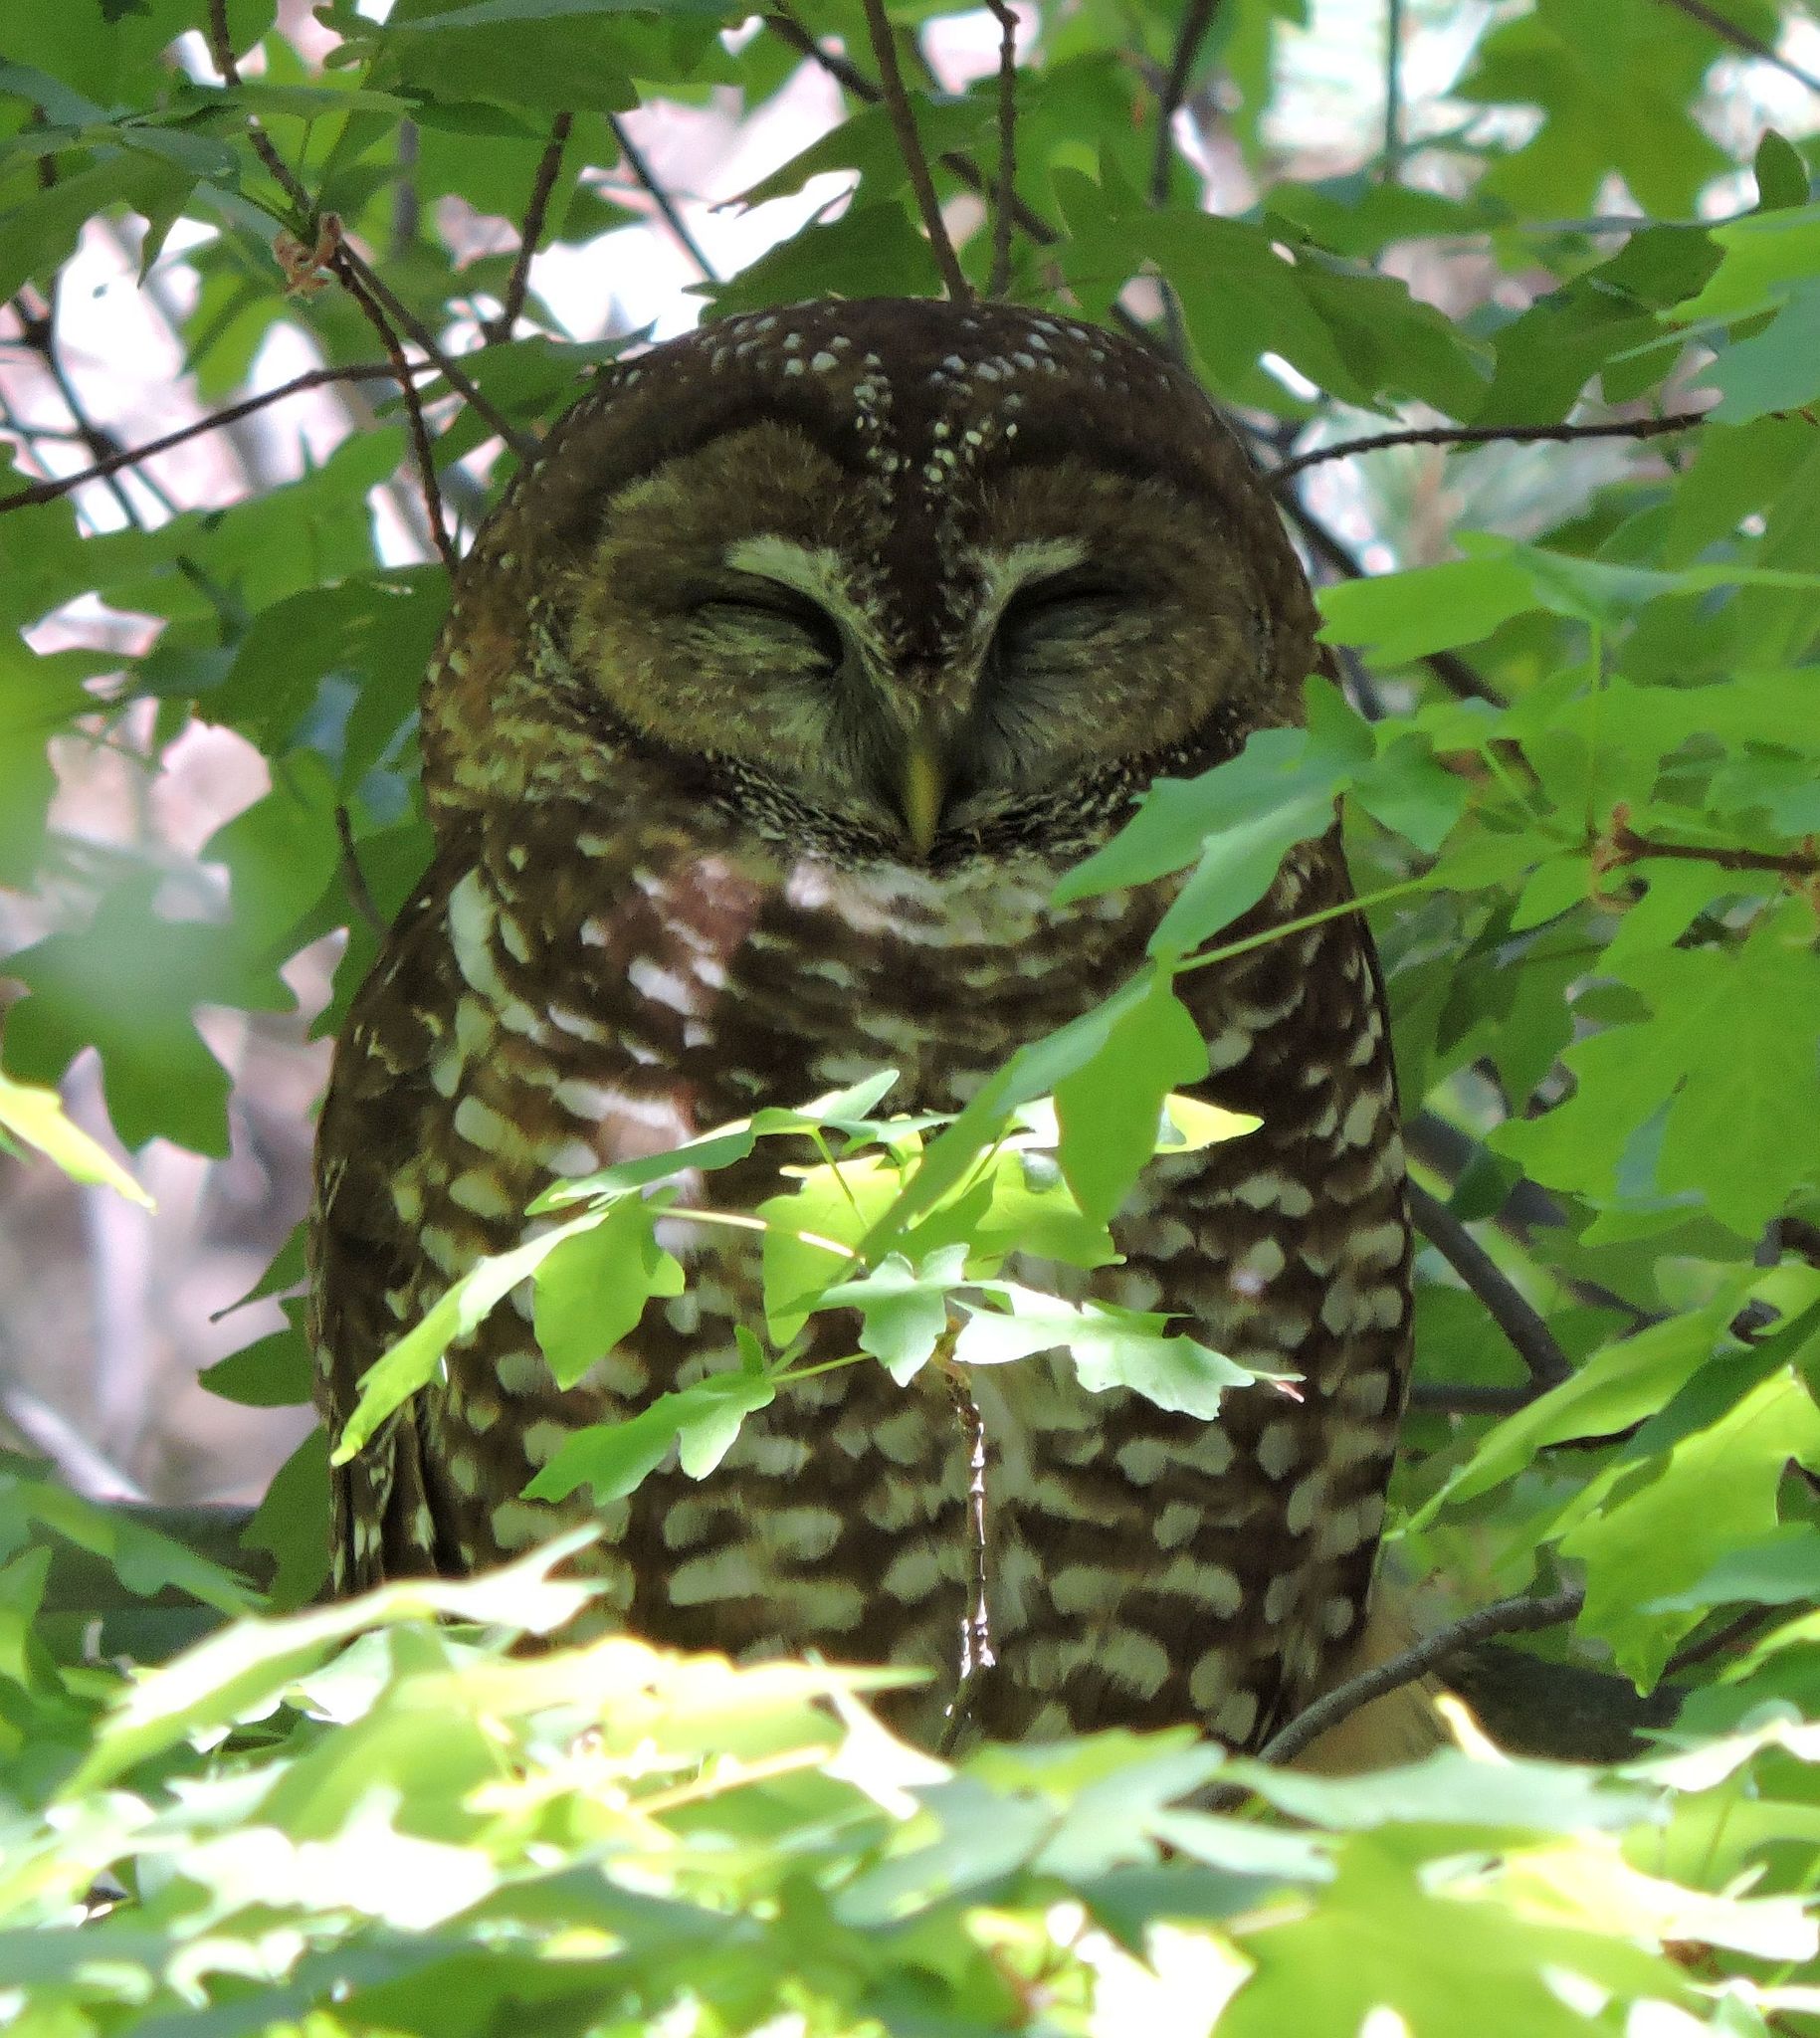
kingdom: Animalia
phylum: Chordata
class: Aves
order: Strigiformes
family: Strigidae
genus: Strix
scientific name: Strix occidentalis
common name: Spotted owl
